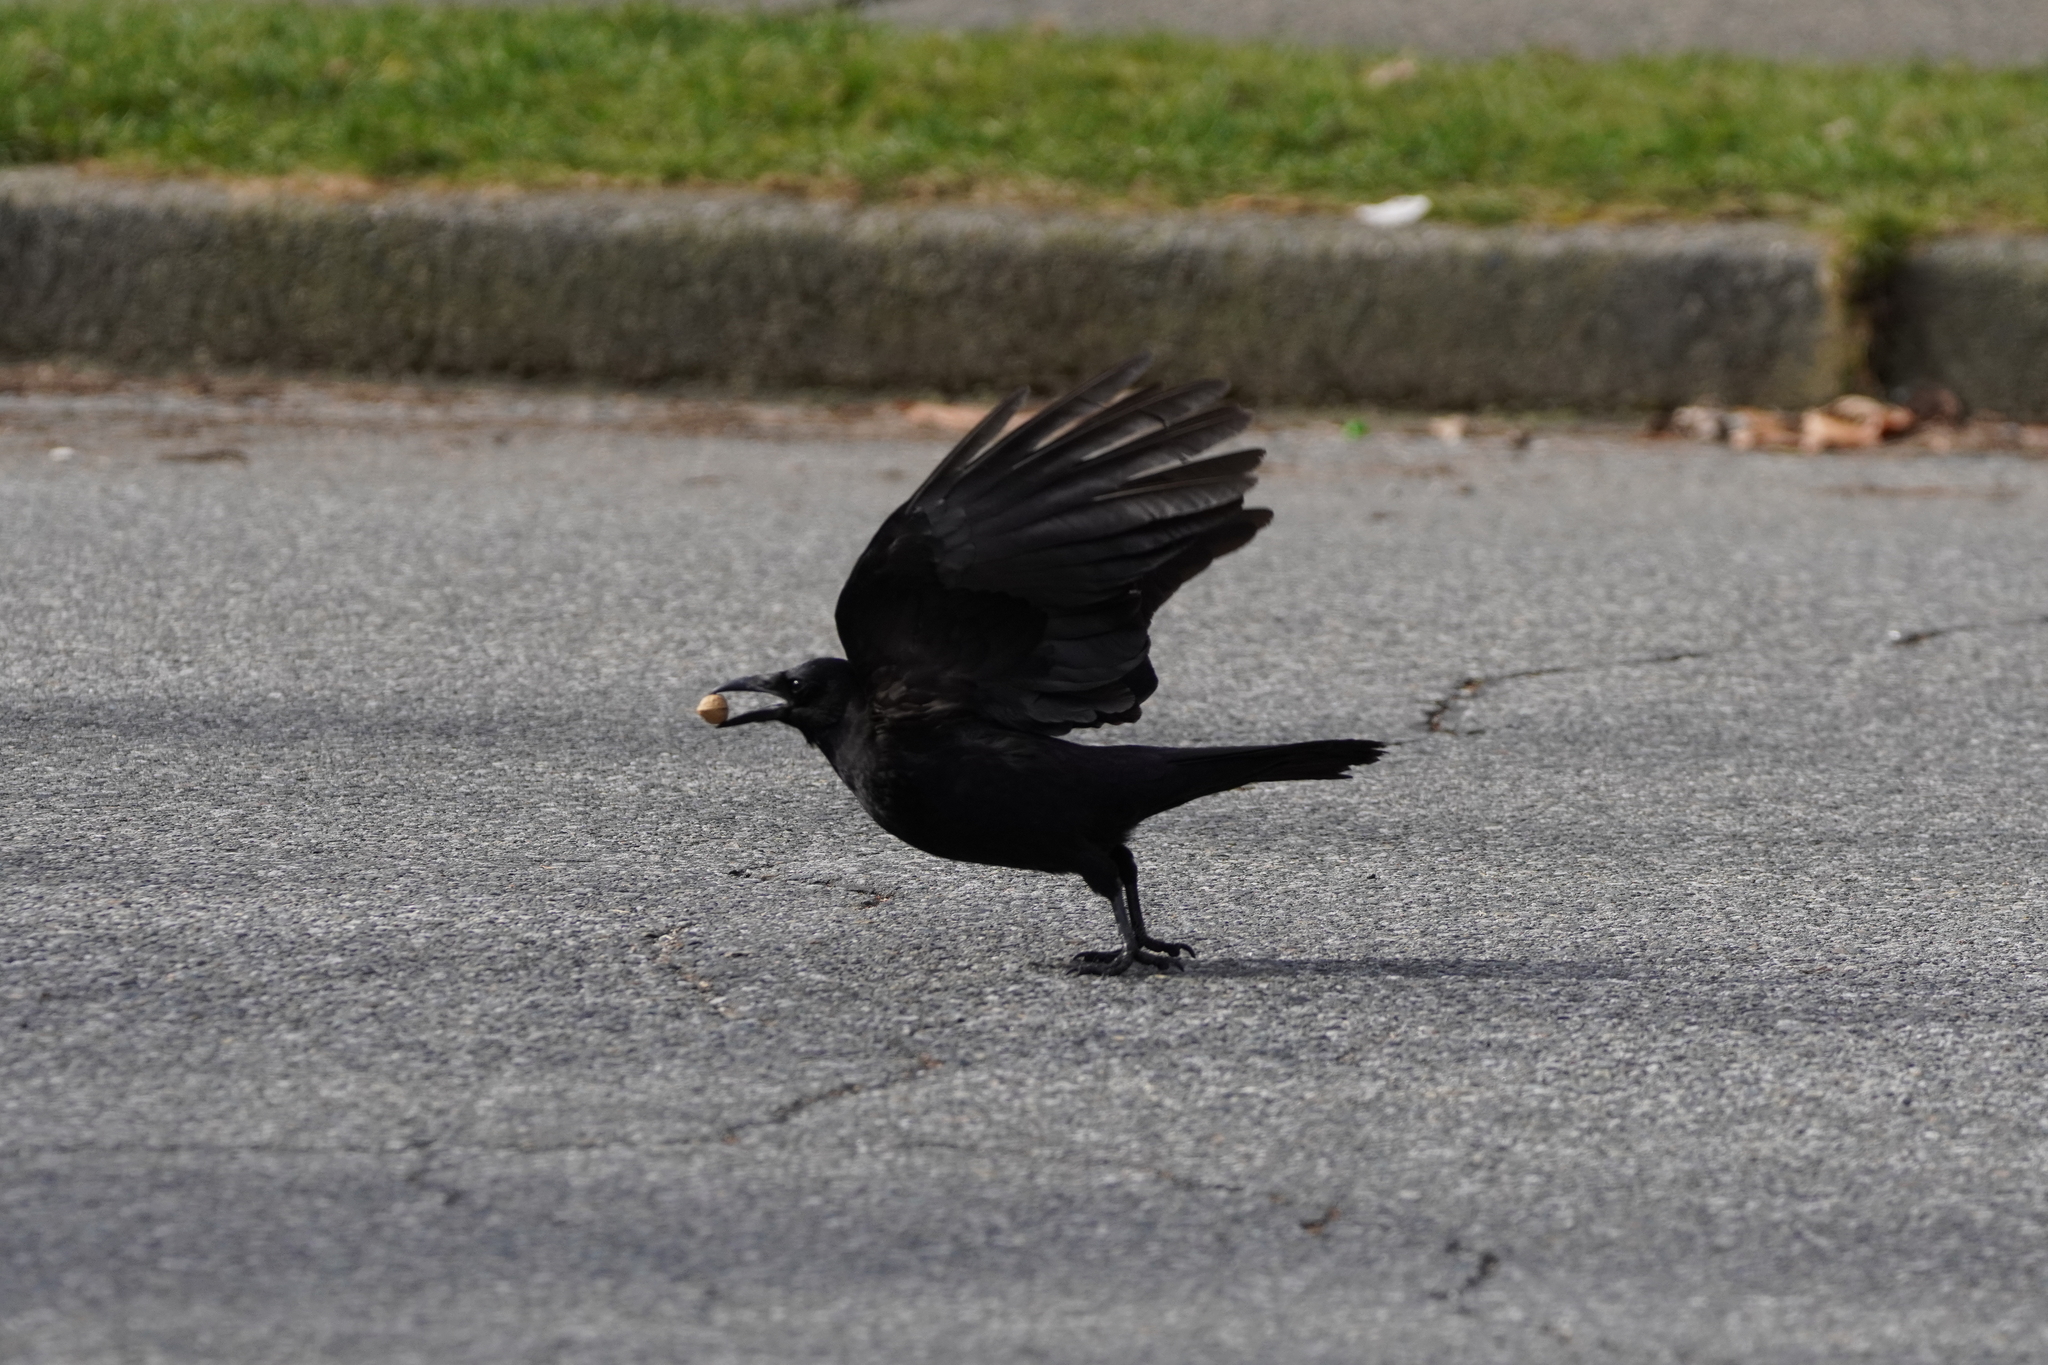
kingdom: Animalia
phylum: Chordata
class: Aves
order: Passeriformes
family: Corvidae
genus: Corvus
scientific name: Corvus brachyrhynchos
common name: American crow
